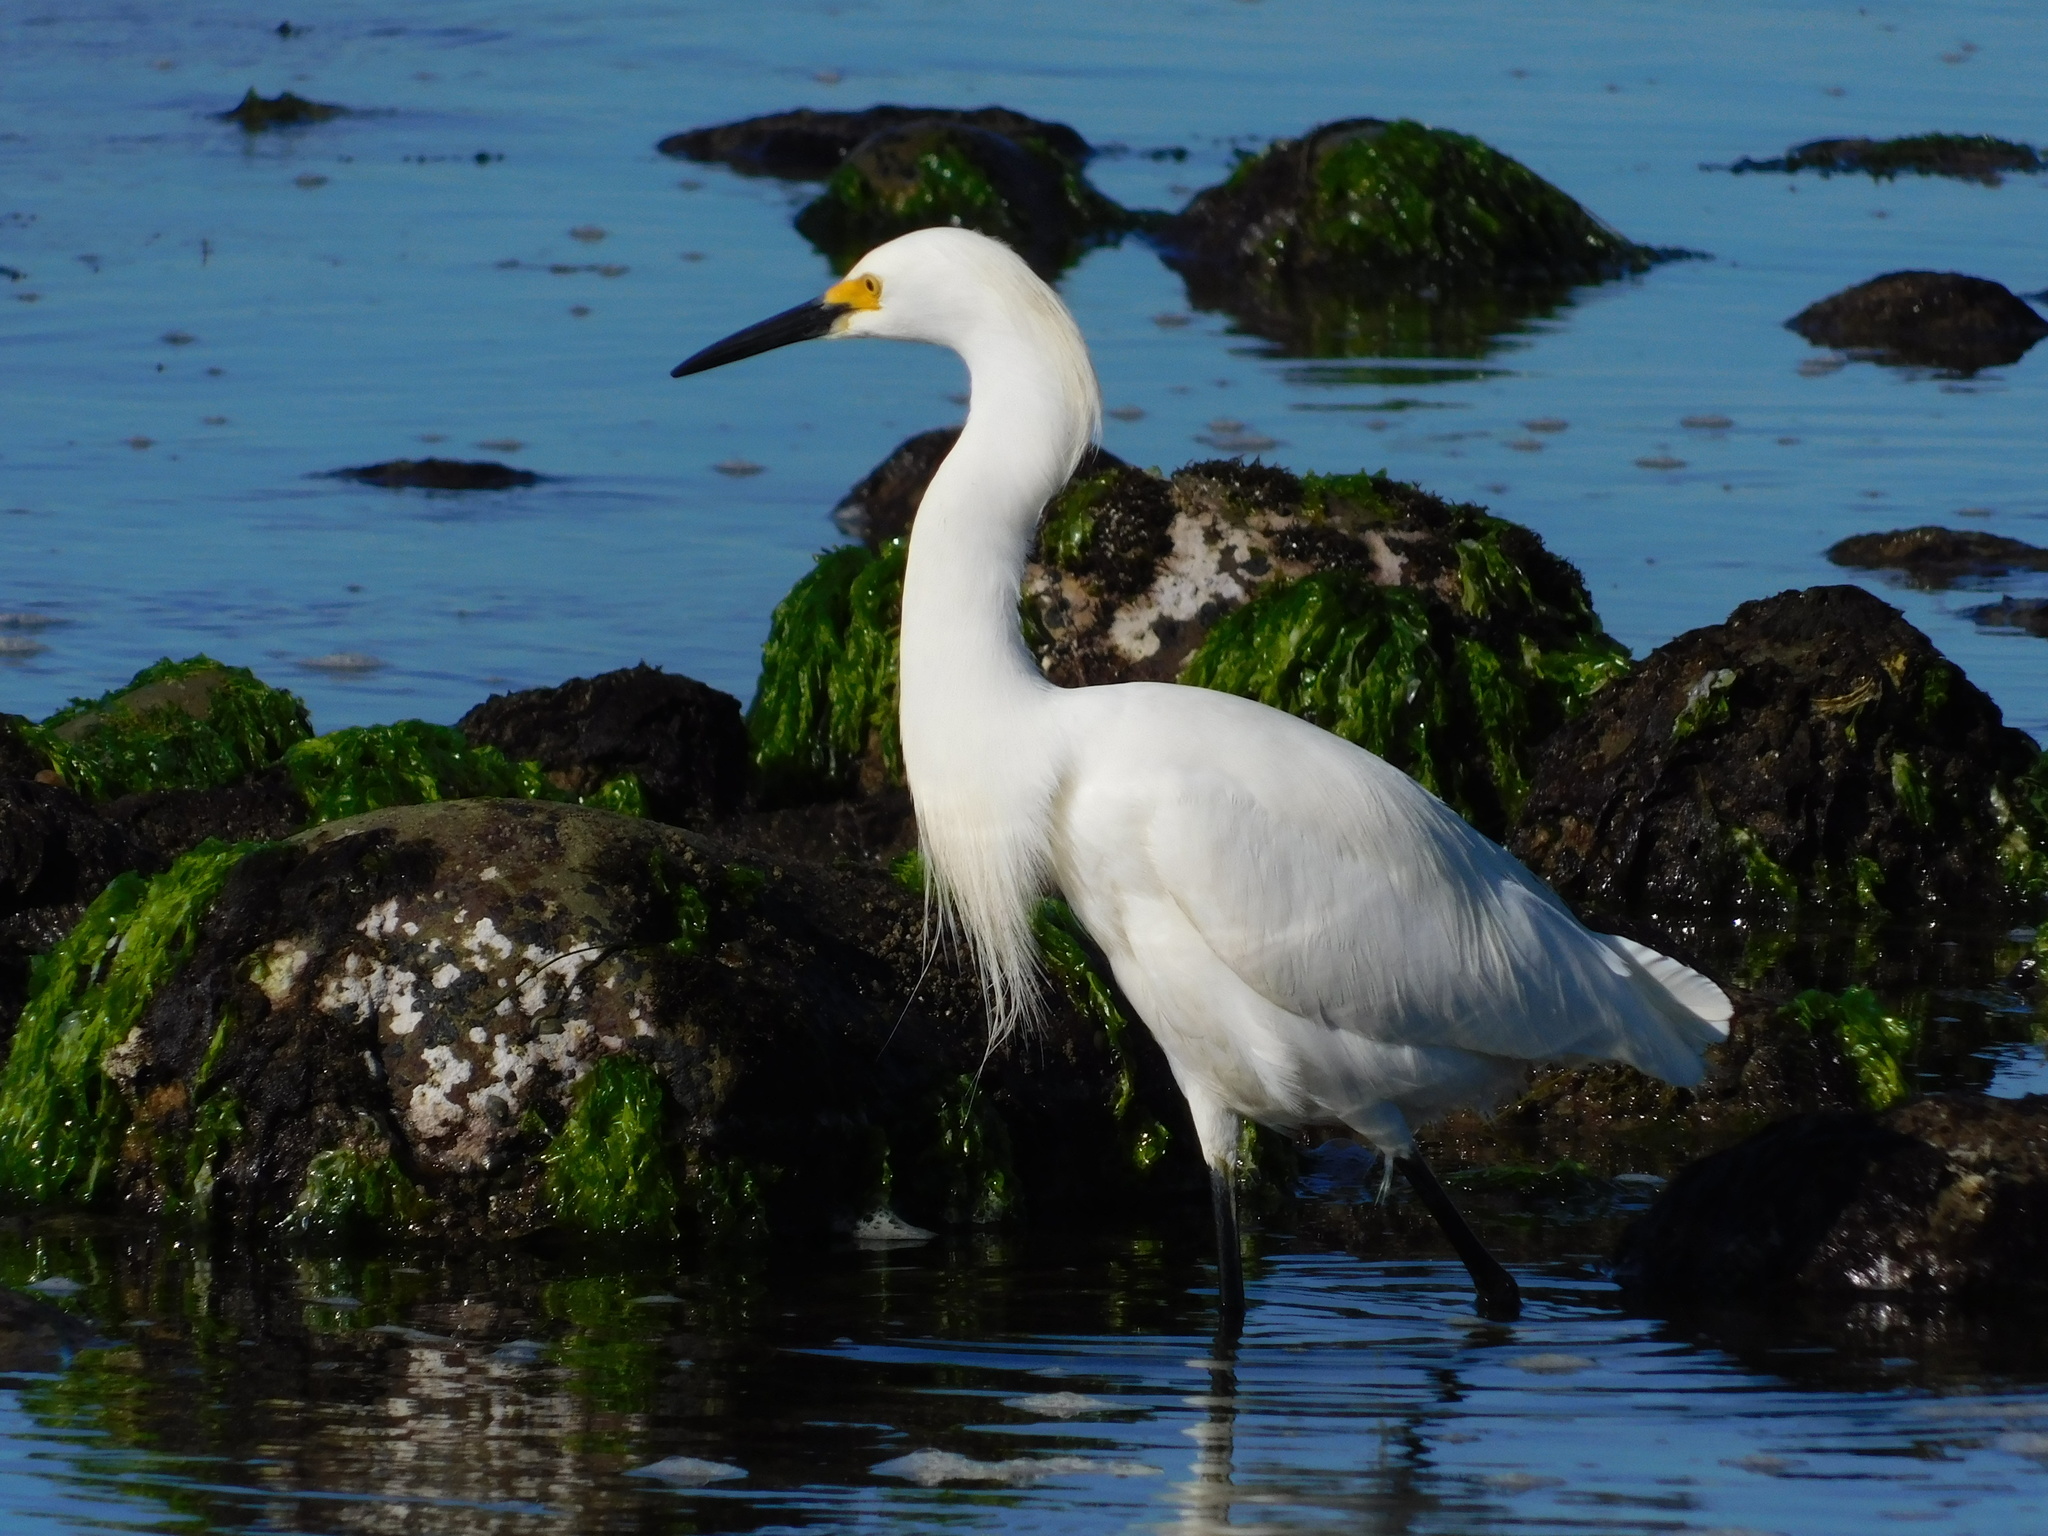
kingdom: Animalia
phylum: Chordata
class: Aves
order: Pelecaniformes
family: Ardeidae
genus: Egretta
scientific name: Egretta thula
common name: Snowy egret
